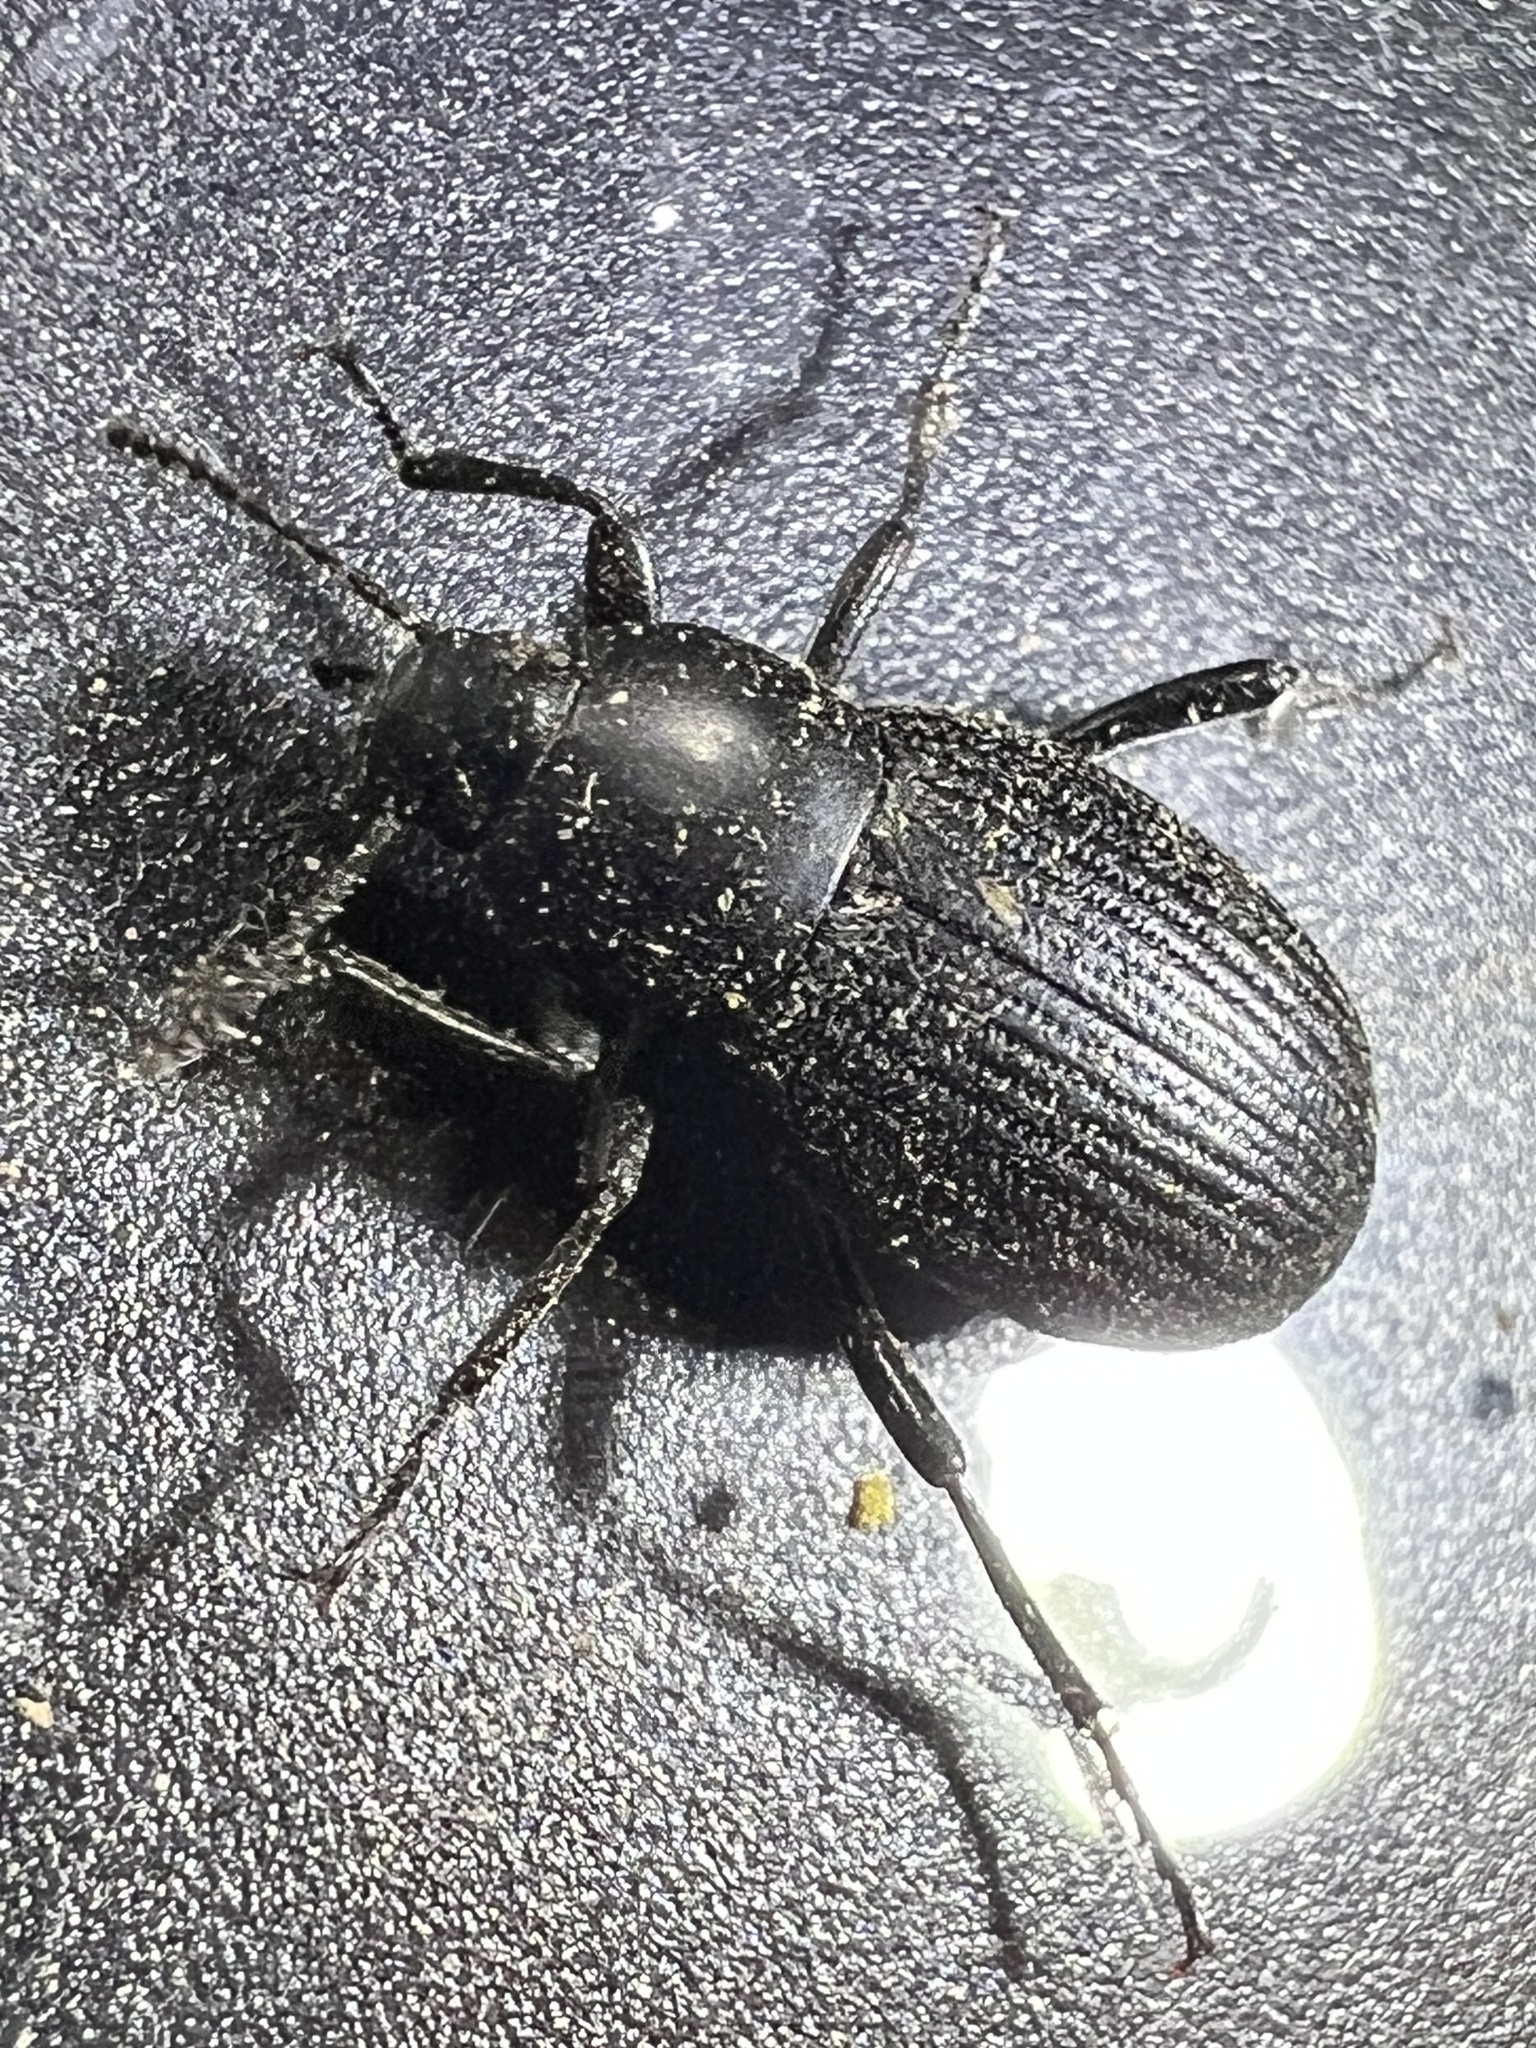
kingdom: Animalia
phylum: Arthropoda
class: Insecta
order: Coleoptera
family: Tenebrionidae
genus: Eleodes
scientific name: Eleodes carbonaria
